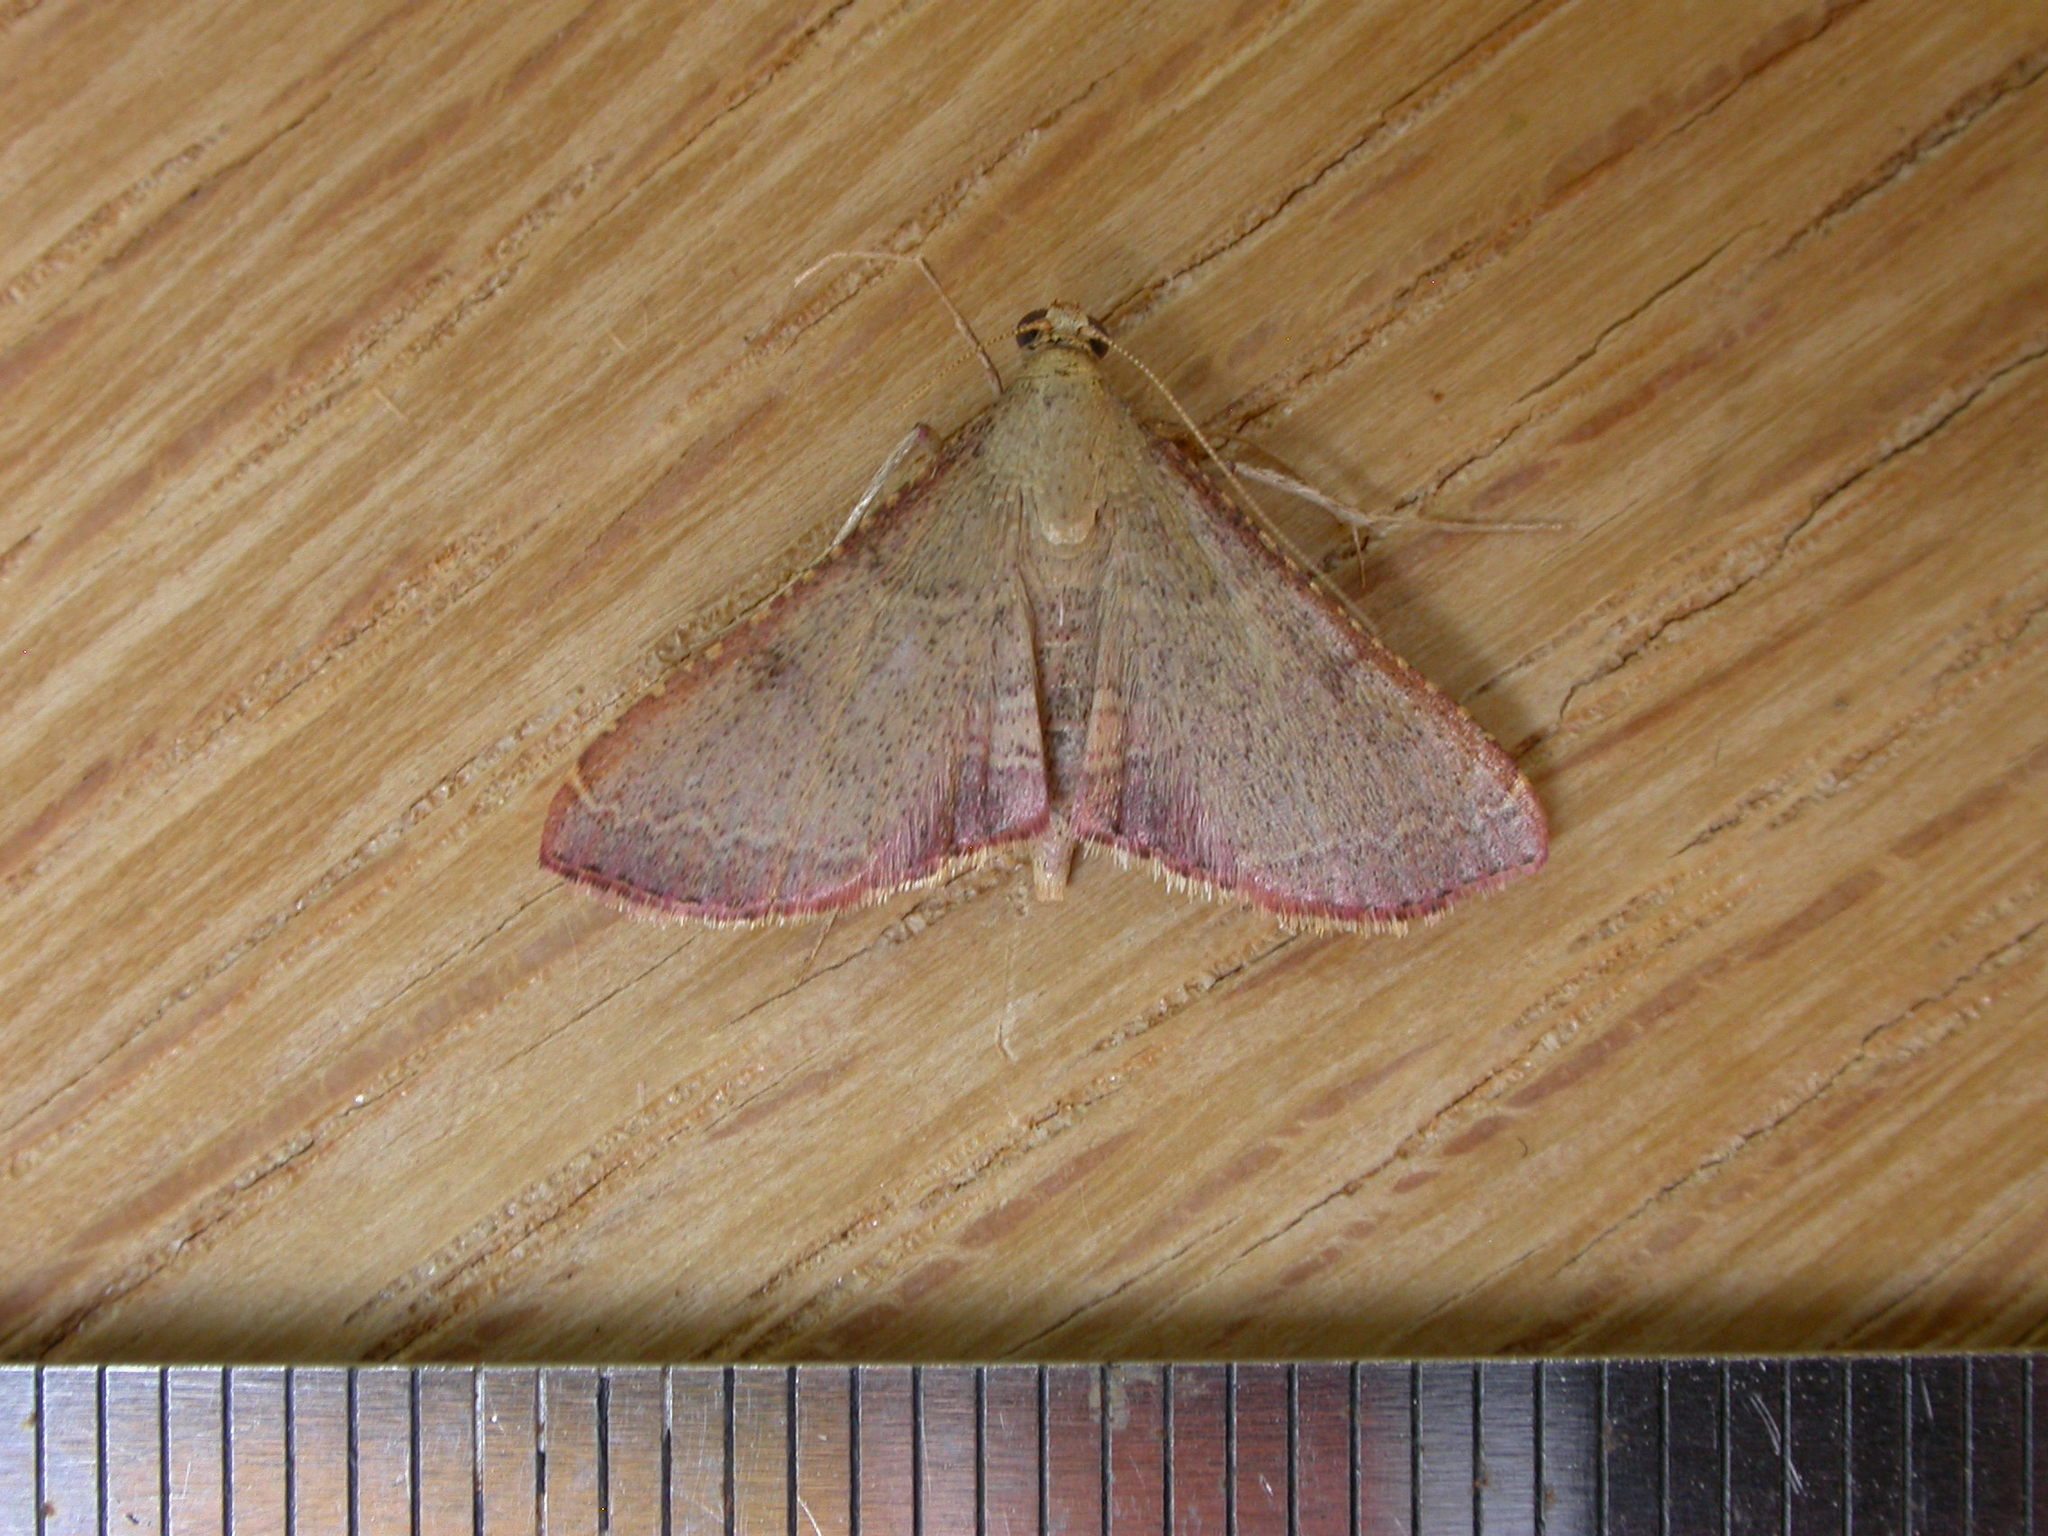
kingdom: Animalia
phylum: Arthropoda
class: Insecta
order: Lepidoptera
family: Pyralidae
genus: Endotricha
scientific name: Endotricha ignealis
